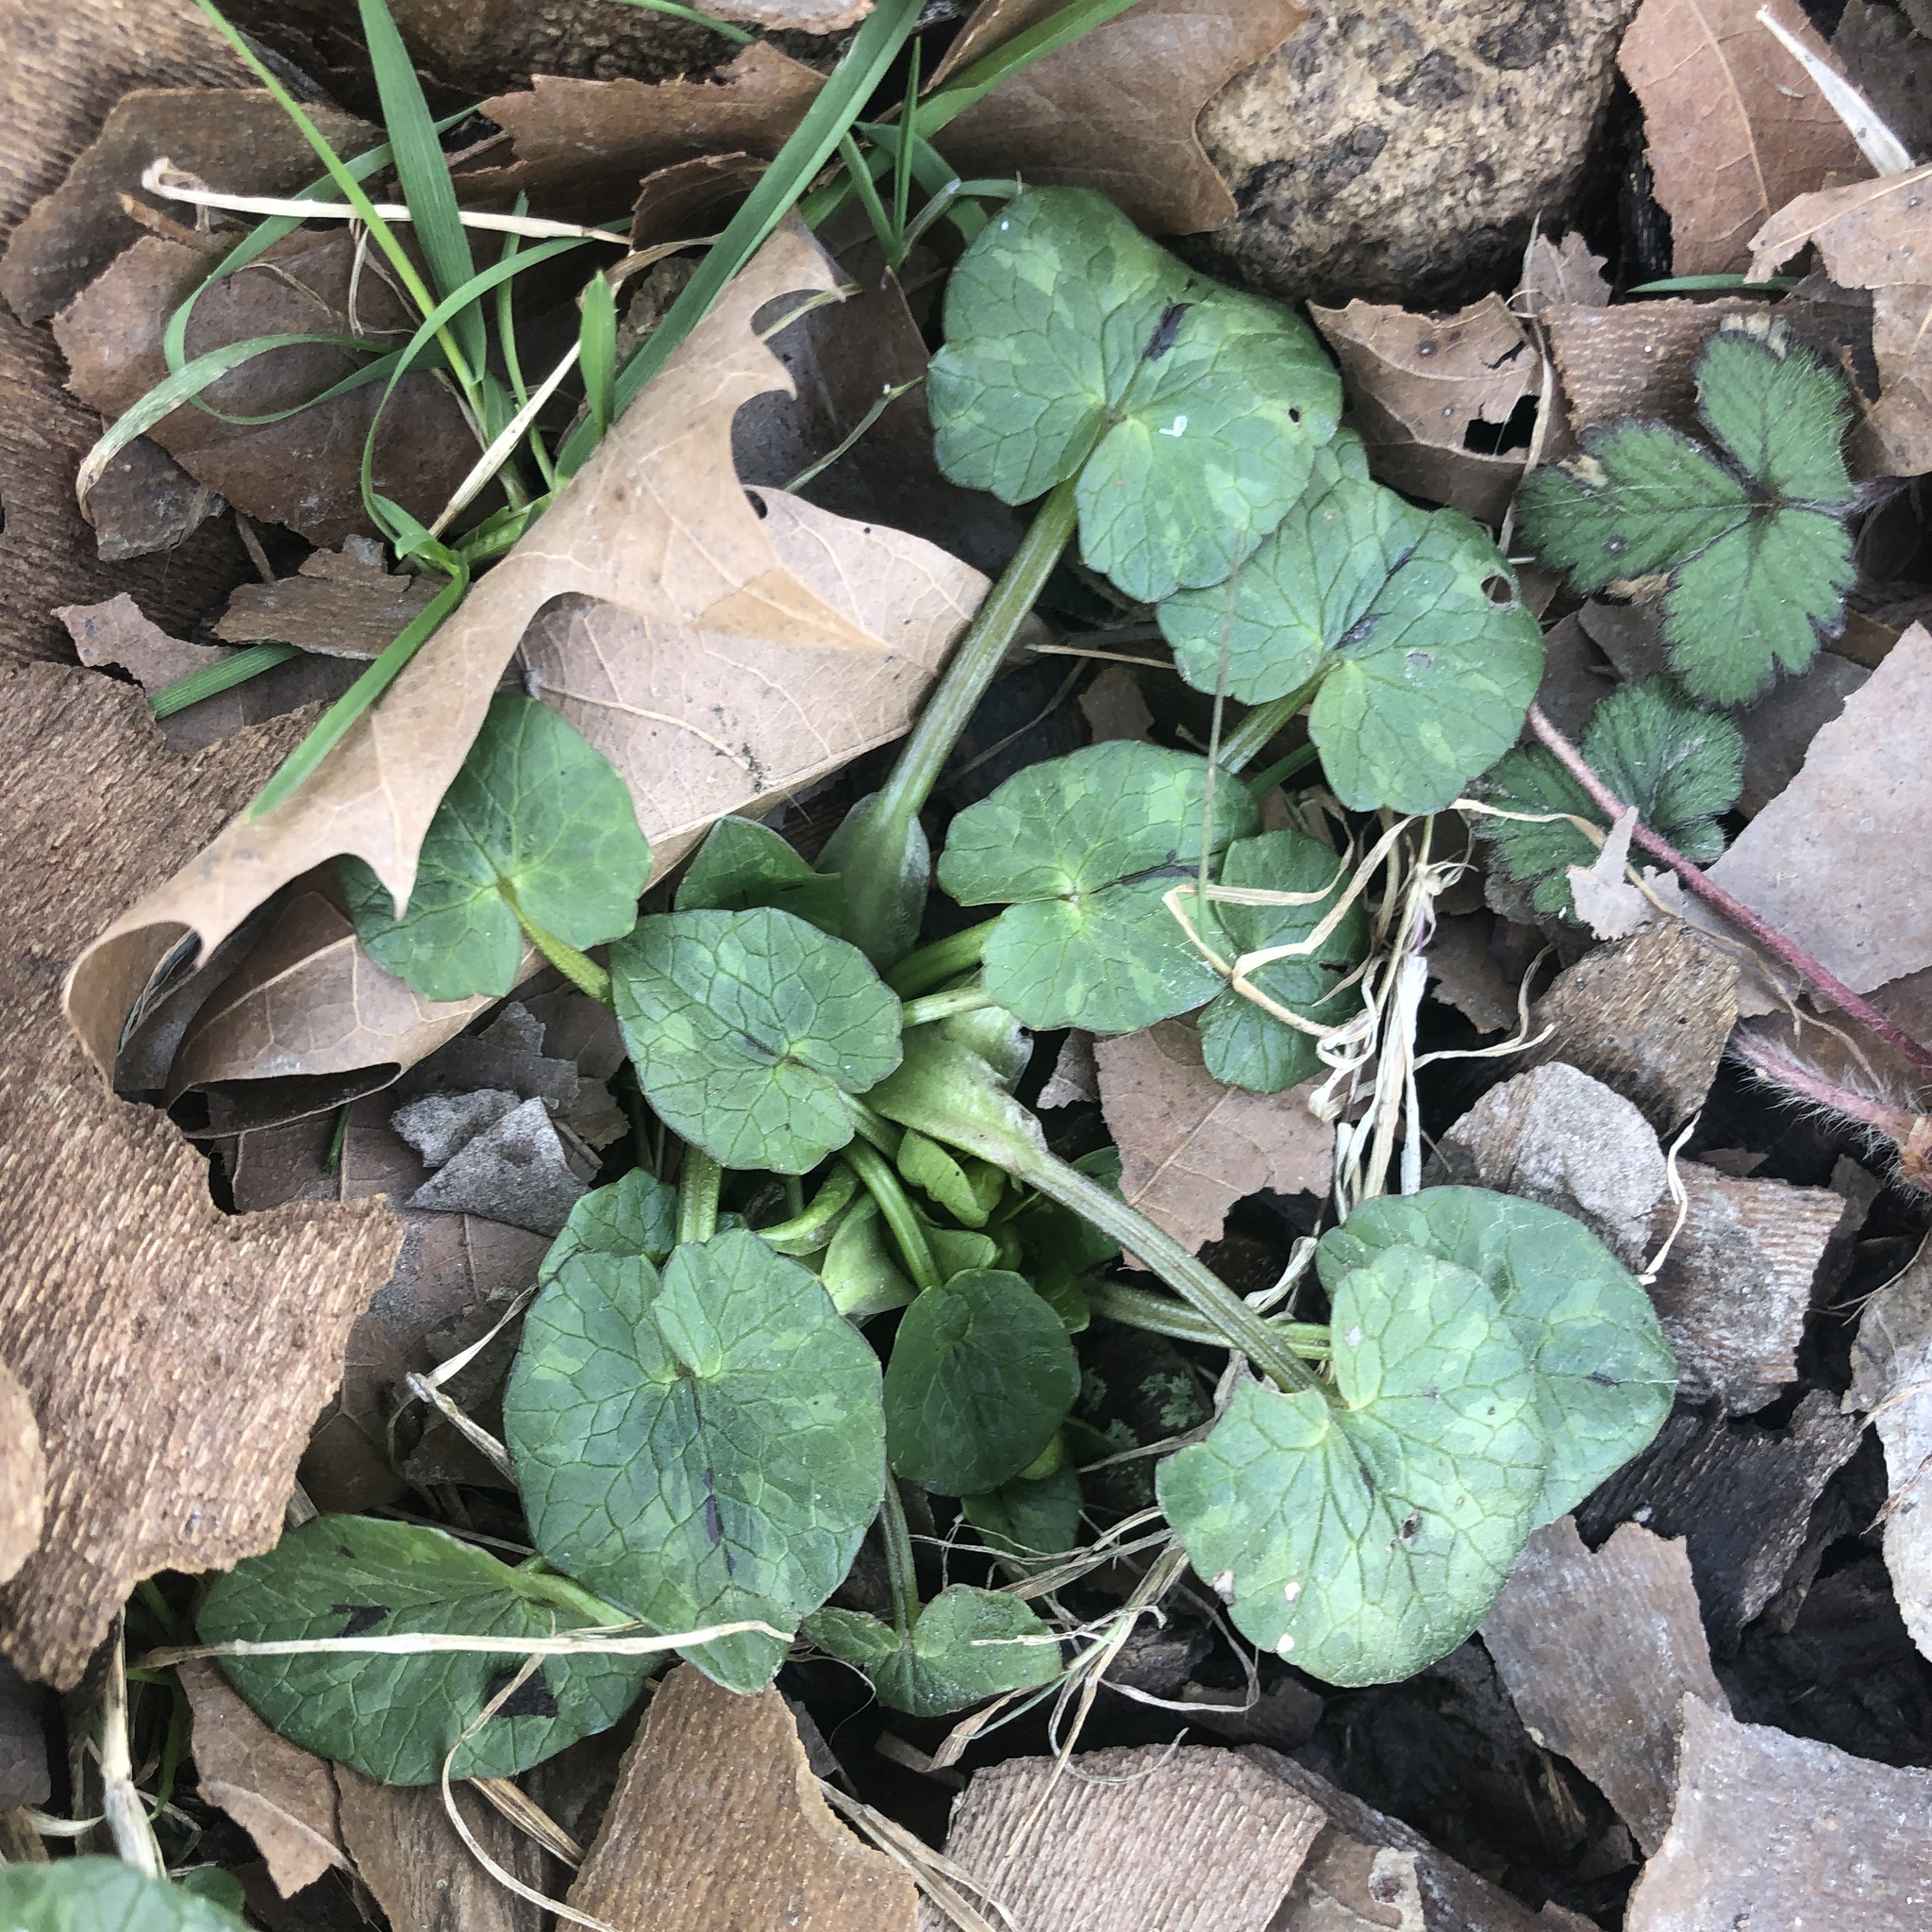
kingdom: Plantae
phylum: Tracheophyta
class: Magnoliopsida
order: Ranunculales
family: Ranunculaceae
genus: Ficaria
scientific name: Ficaria verna
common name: Lesser celandine
